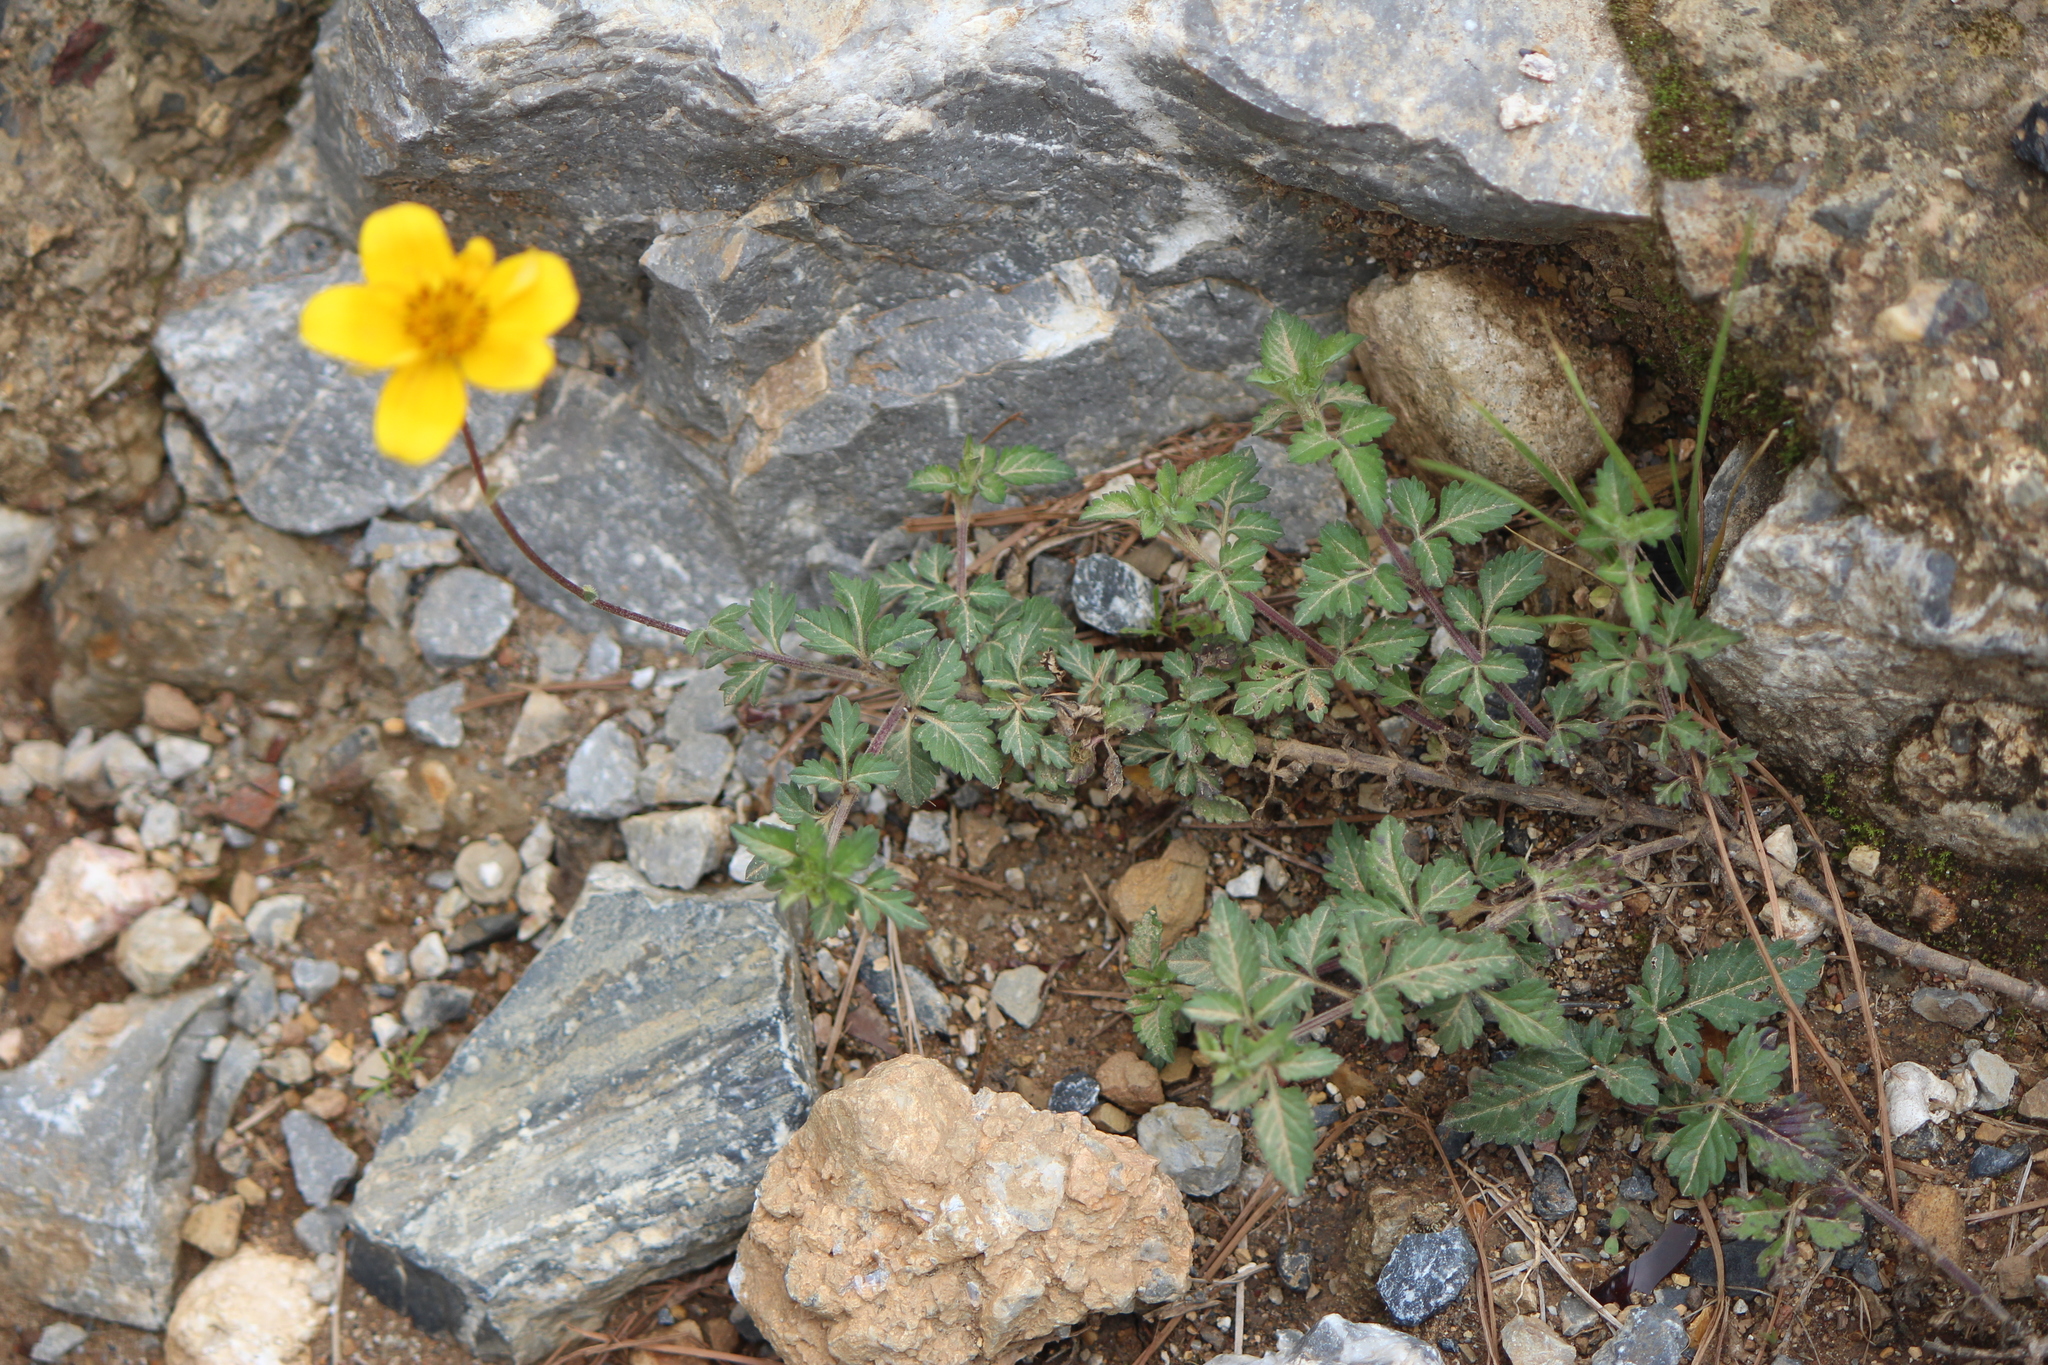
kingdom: Plantae
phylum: Tracheophyta
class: Magnoliopsida
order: Asterales
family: Asteraceae
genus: Bidens
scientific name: Bidens triplinervia
